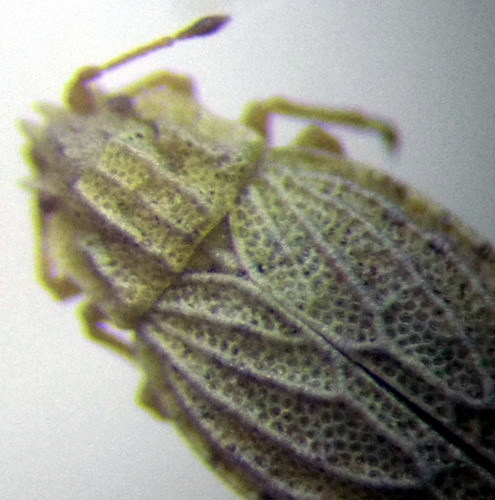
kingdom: Animalia
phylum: Arthropoda
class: Insecta
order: Hemiptera
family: Piesmatidae
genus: Parapiesma
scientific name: Parapiesma kochiae
